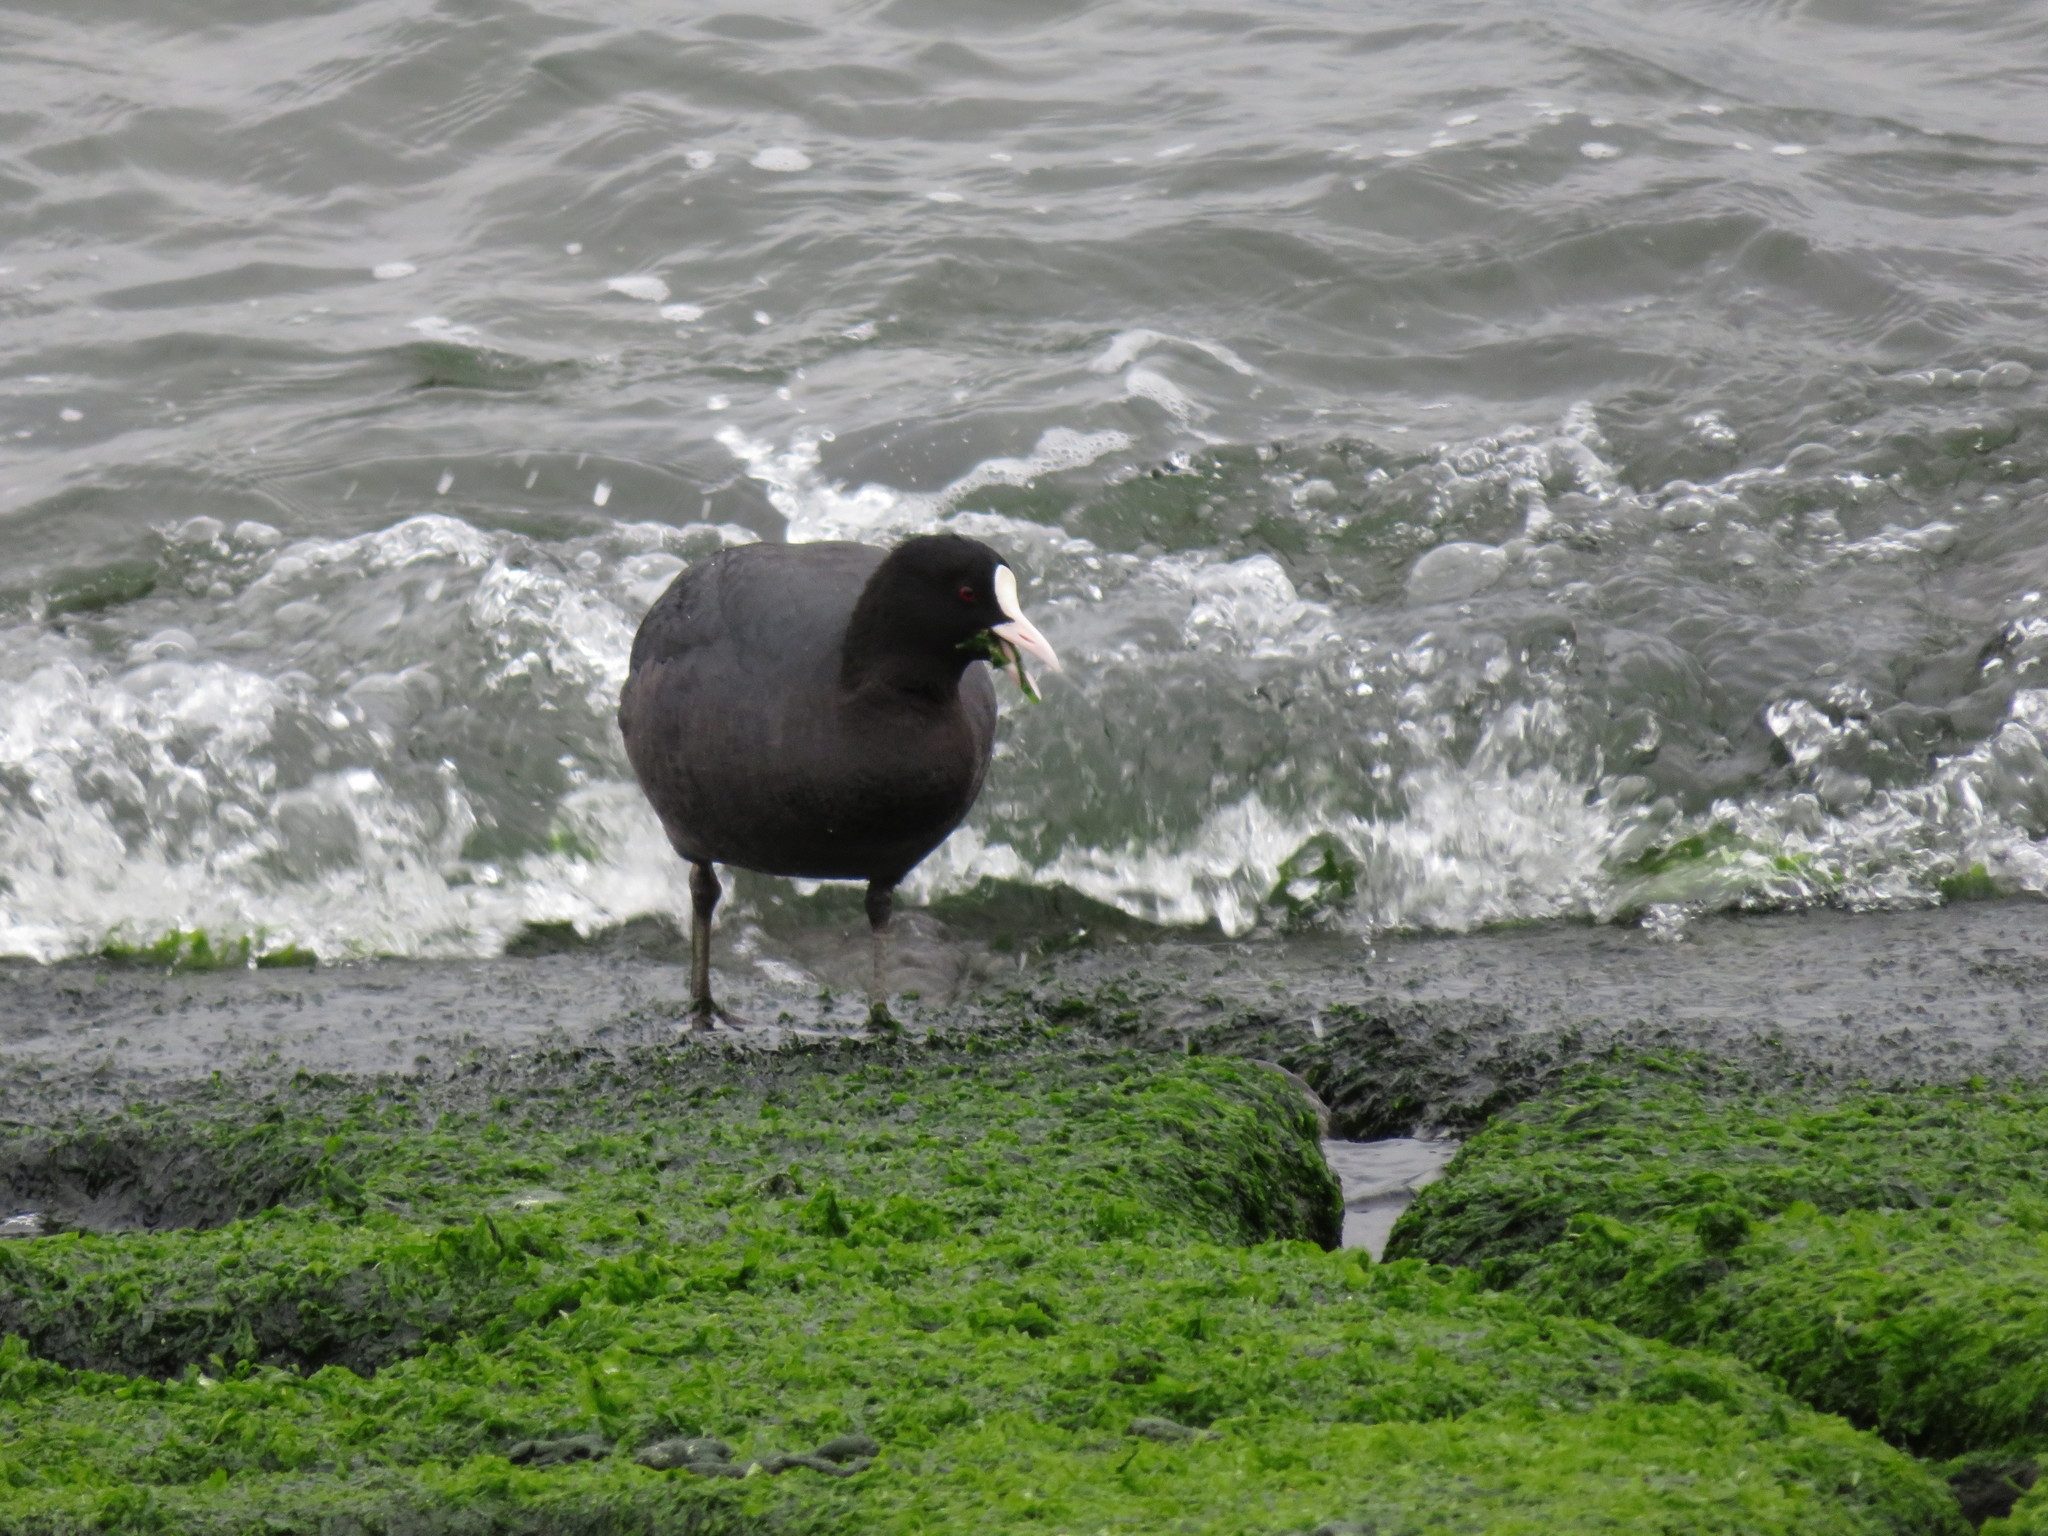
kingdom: Animalia
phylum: Chordata
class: Aves
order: Gruiformes
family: Rallidae
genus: Fulica
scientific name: Fulica atra
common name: Eurasian coot
